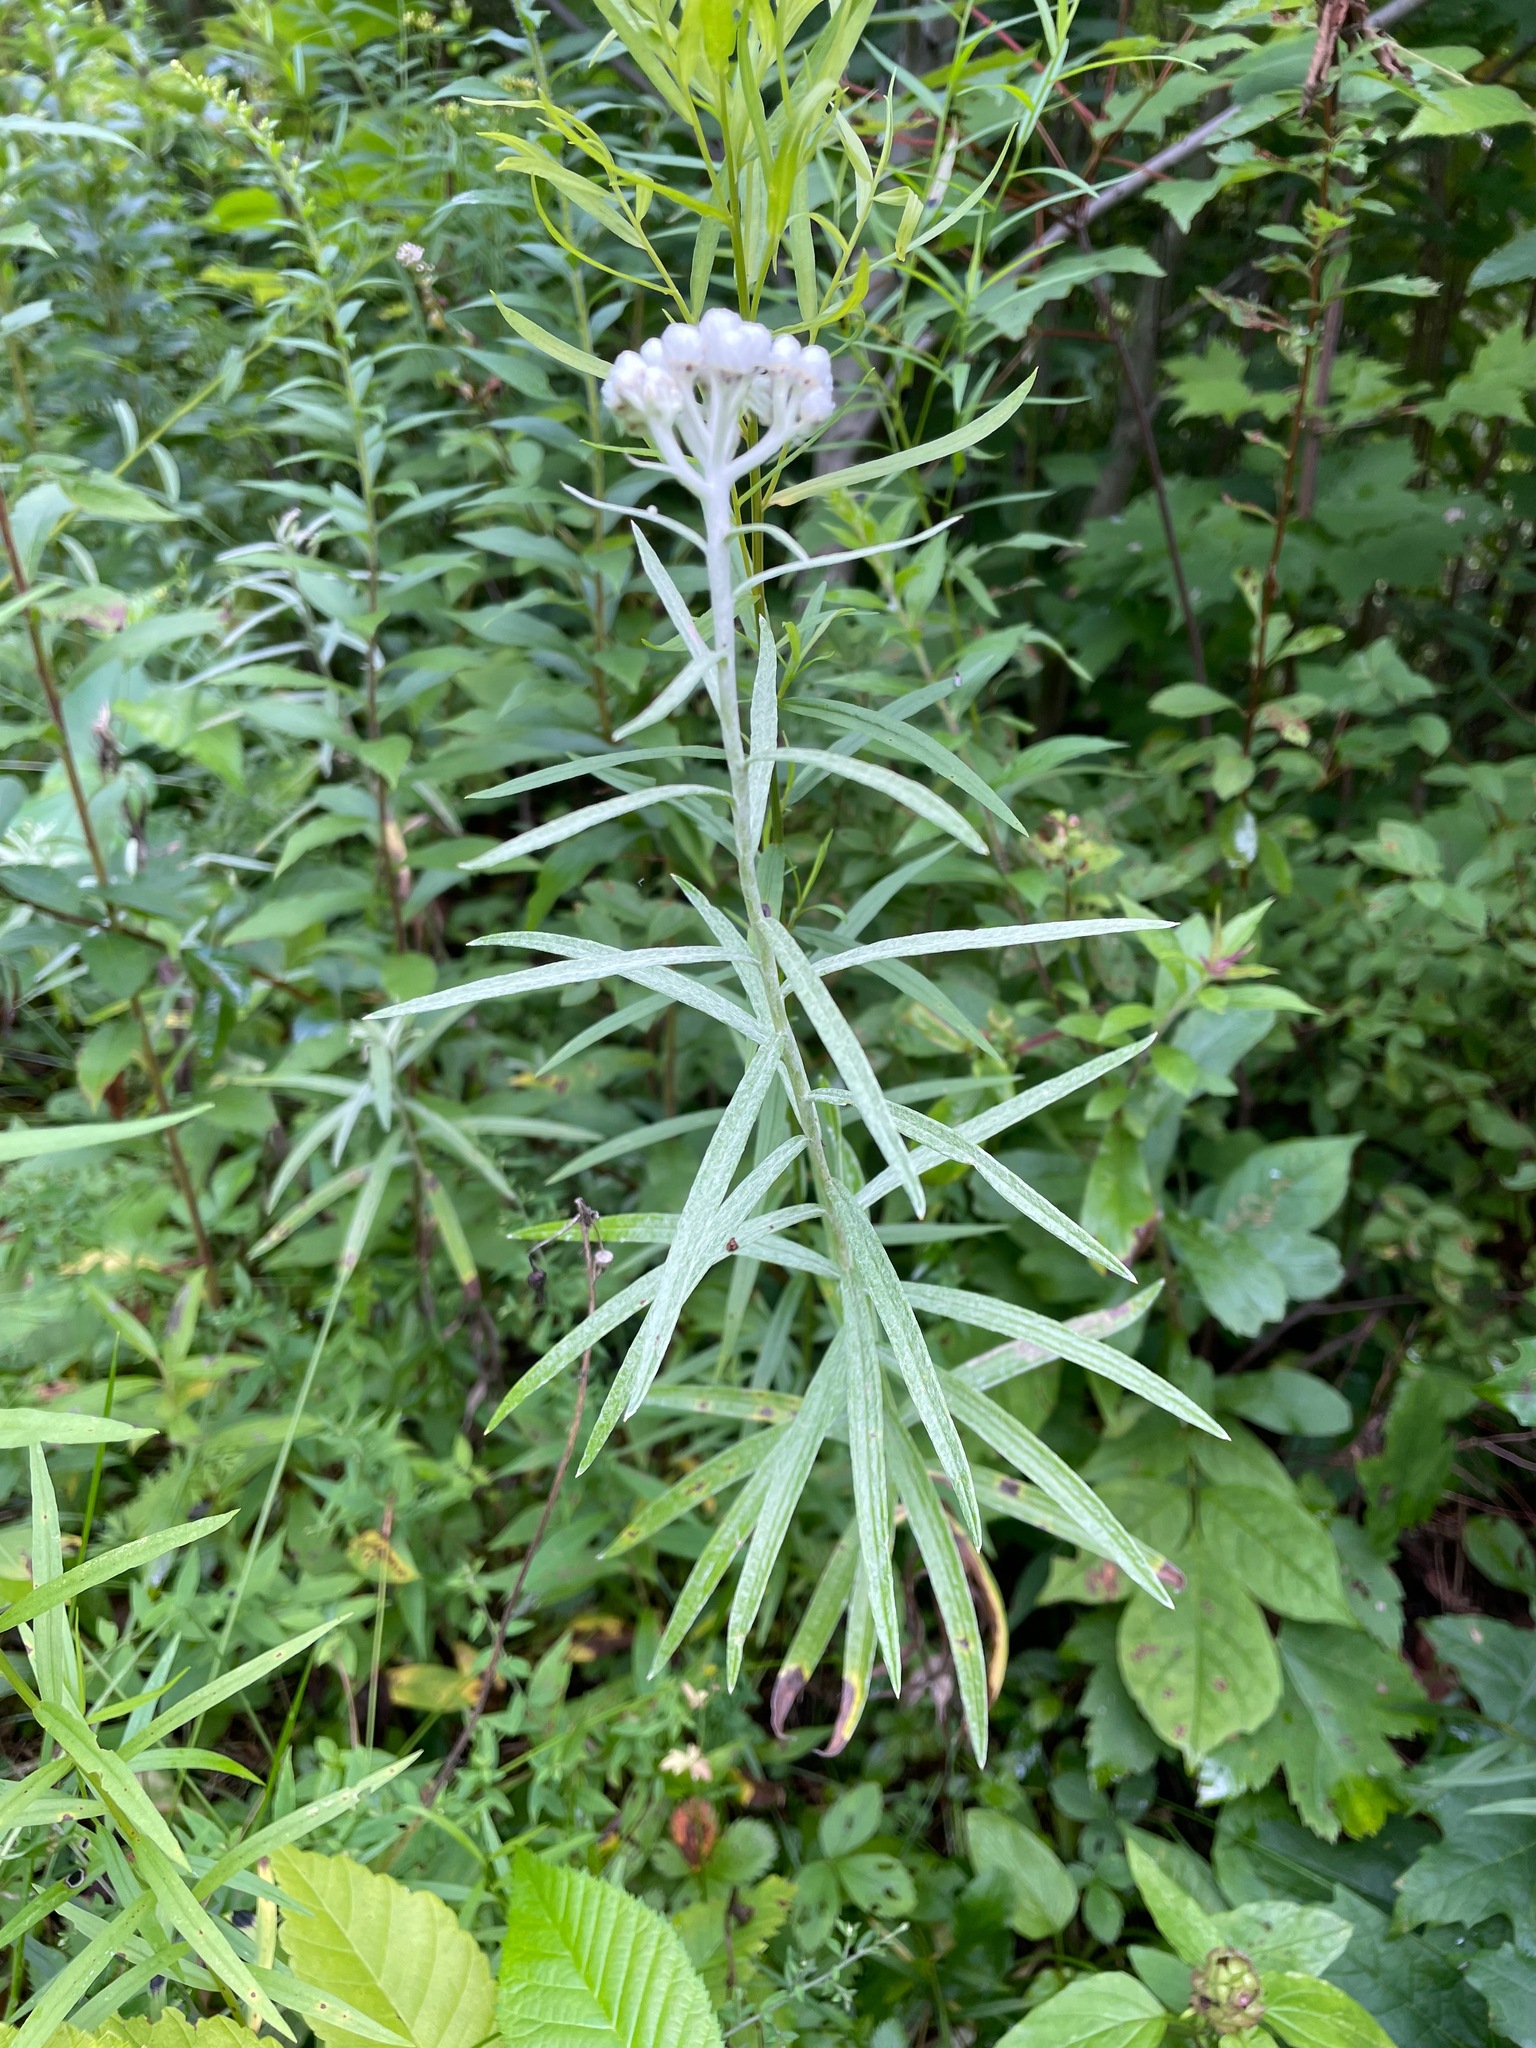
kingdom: Plantae
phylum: Tracheophyta
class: Magnoliopsida
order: Asterales
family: Asteraceae
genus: Anaphalis
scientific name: Anaphalis margaritacea
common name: Pearly everlasting
